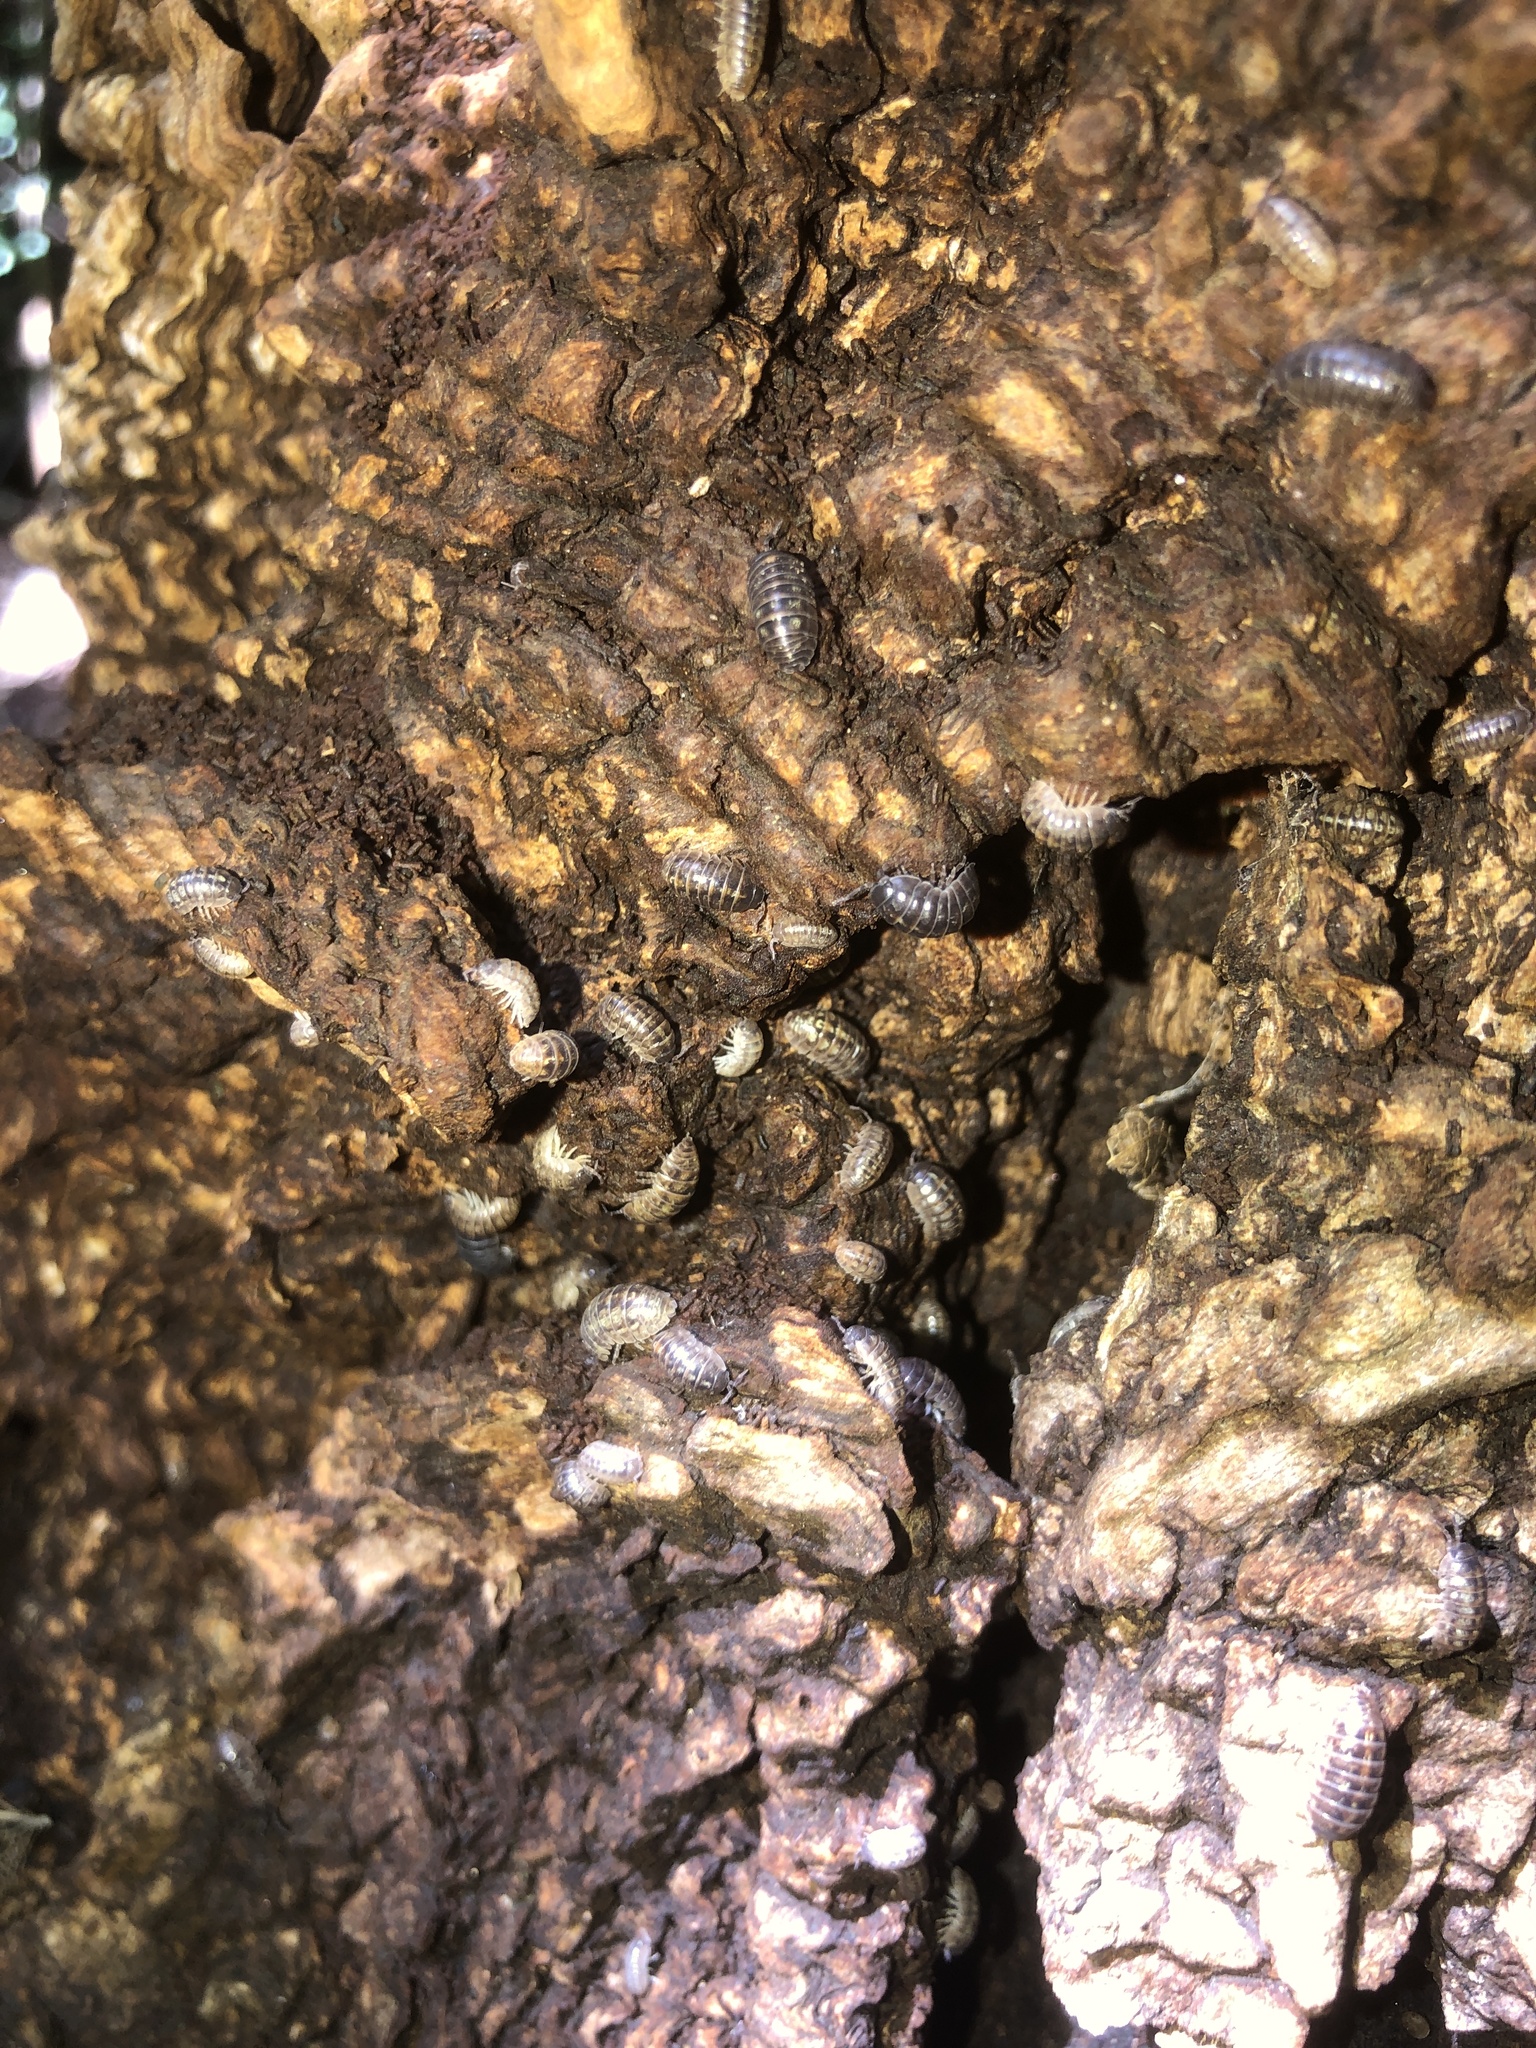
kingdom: Animalia
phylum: Arthropoda
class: Malacostraca
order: Isopoda
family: Armadillidiidae
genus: Armadillidium
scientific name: Armadillidium vulgare
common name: Common pill woodlouse
